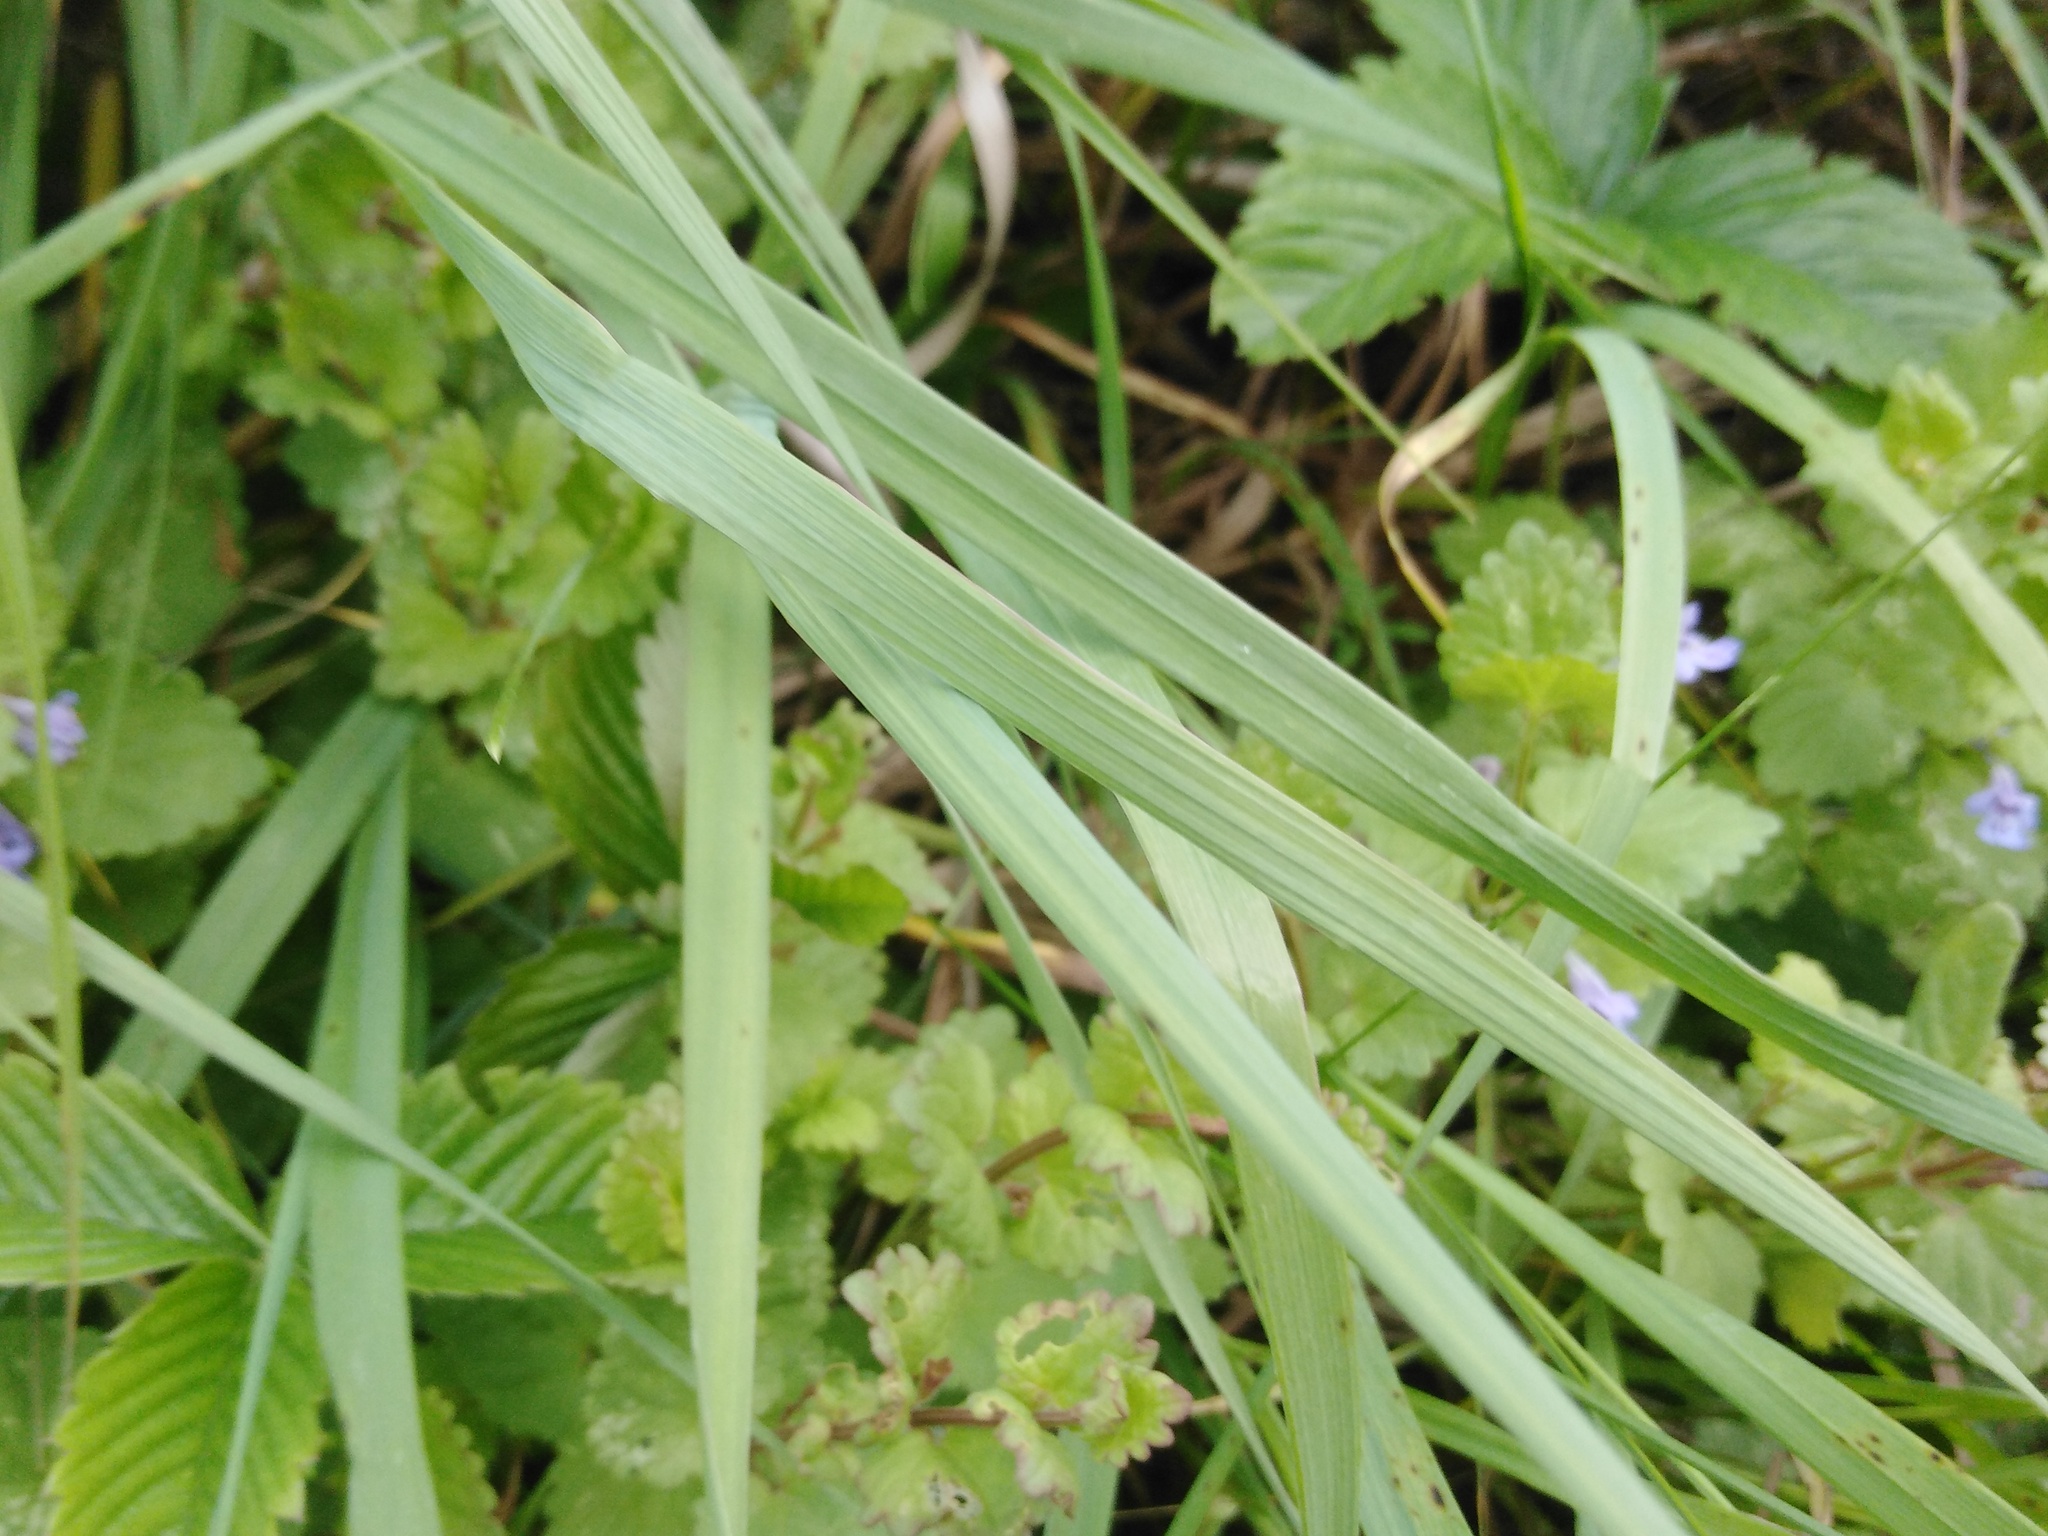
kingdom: Plantae
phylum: Tracheophyta
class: Magnoliopsida
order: Lamiales
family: Lamiaceae
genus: Glechoma
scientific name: Glechoma hederacea
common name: Ground ivy
